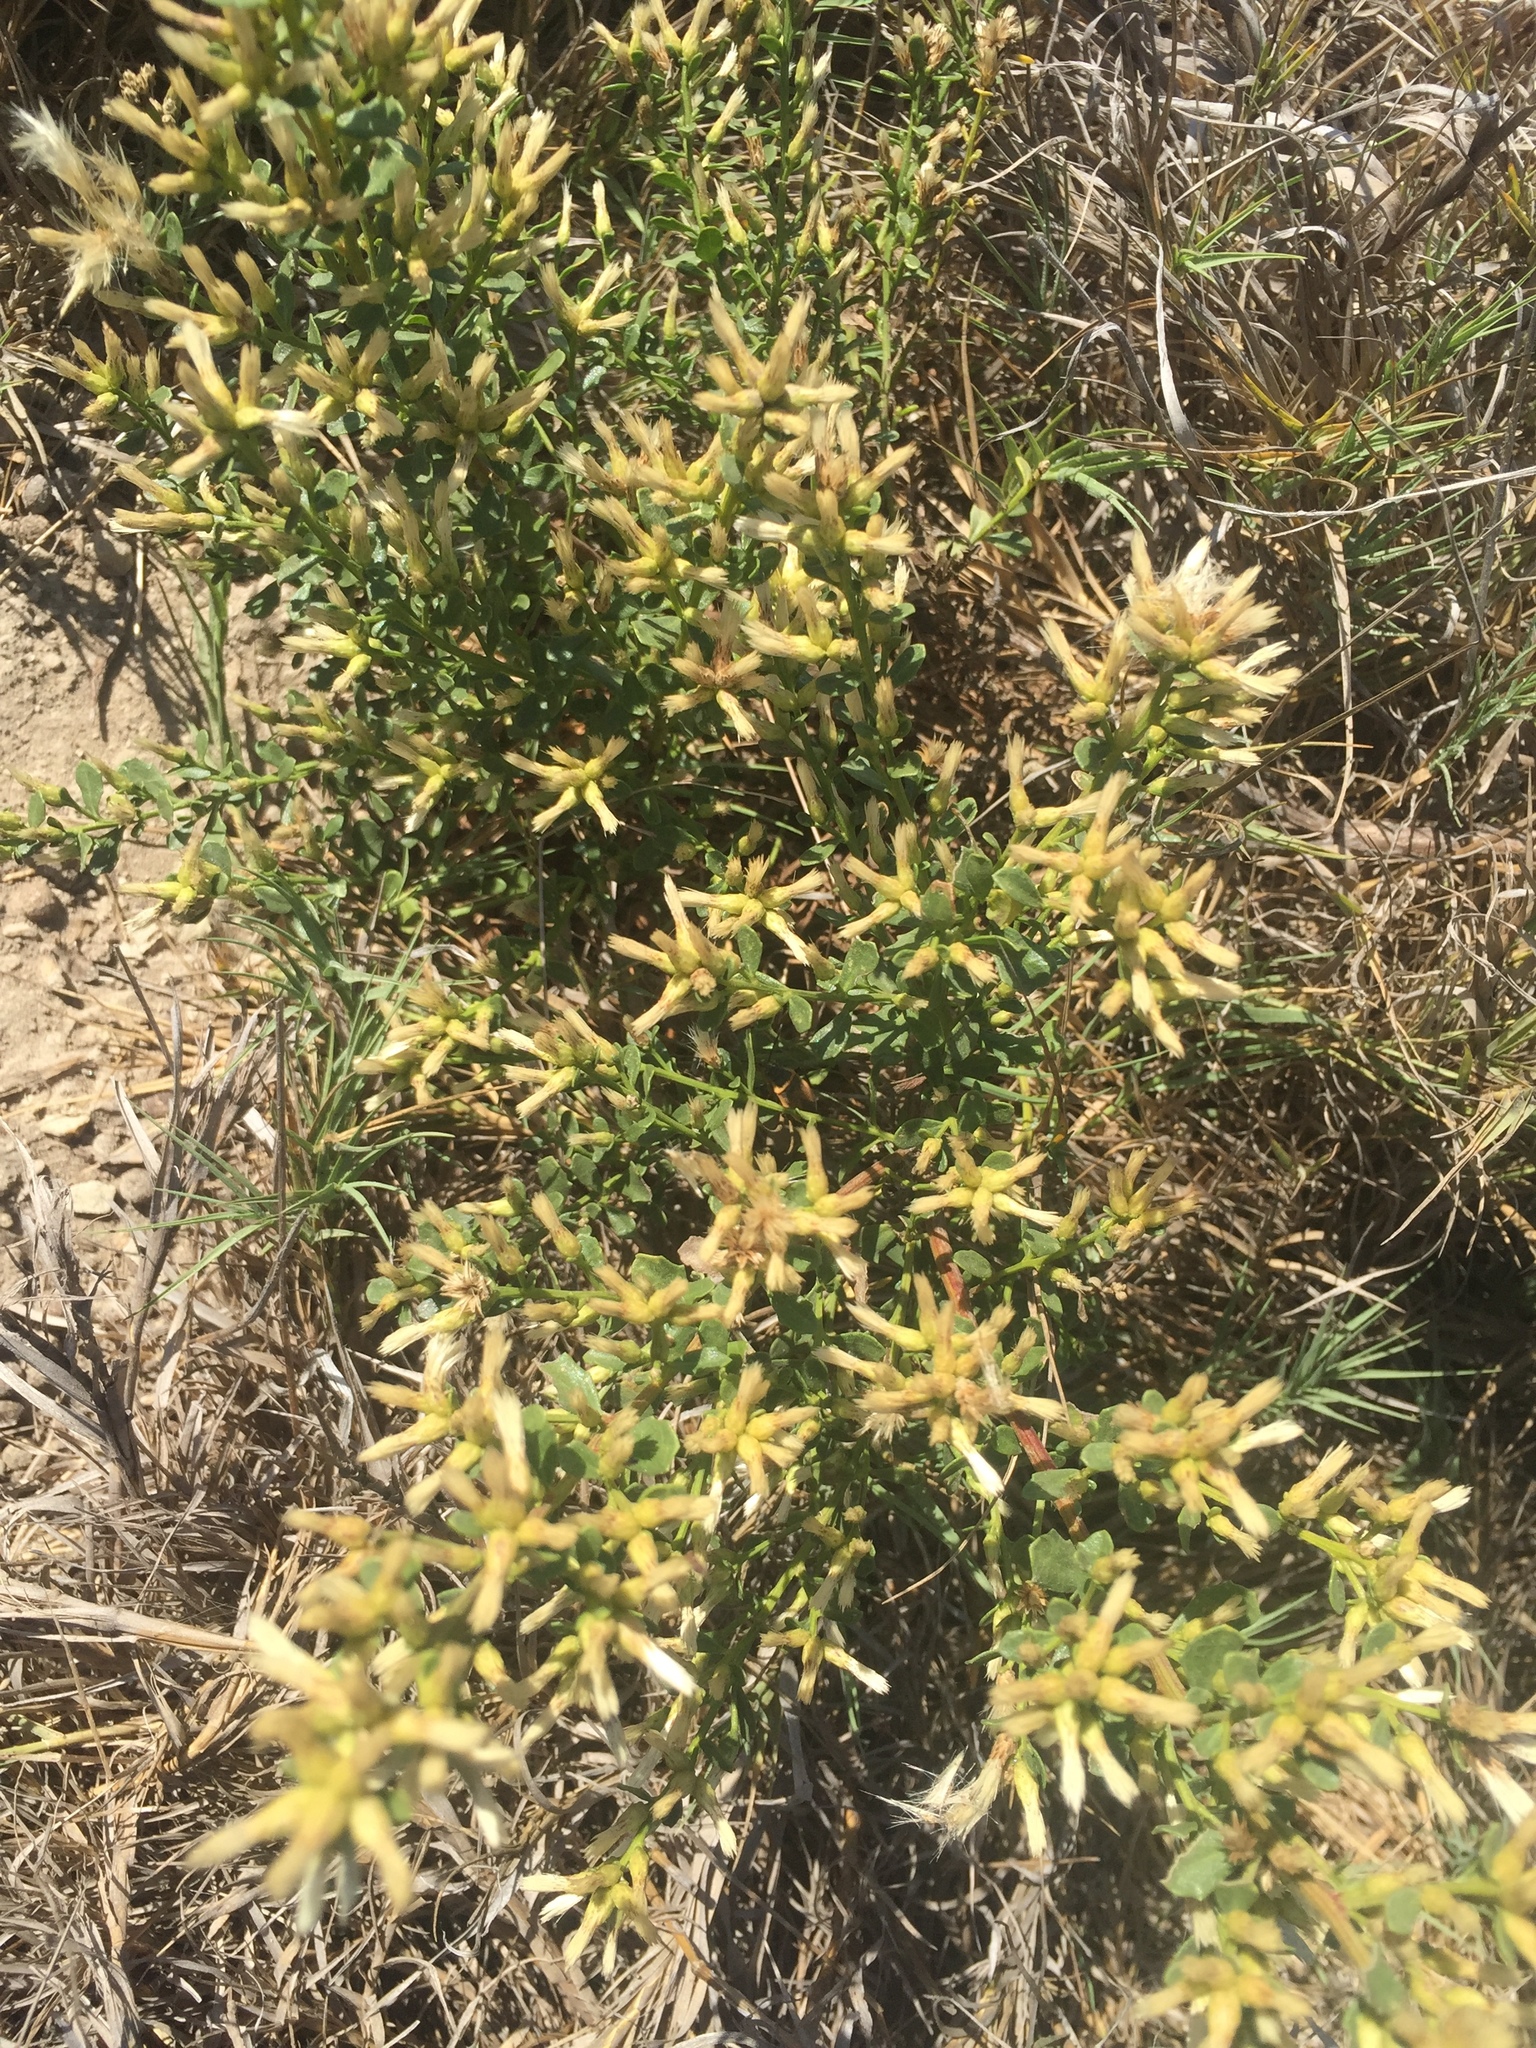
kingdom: Plantae
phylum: Tracheophyta
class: Magnoliopsida
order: Asterales
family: Asteraceae
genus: Baccharis
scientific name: Baccharis pilularis
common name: Coyotebrush
